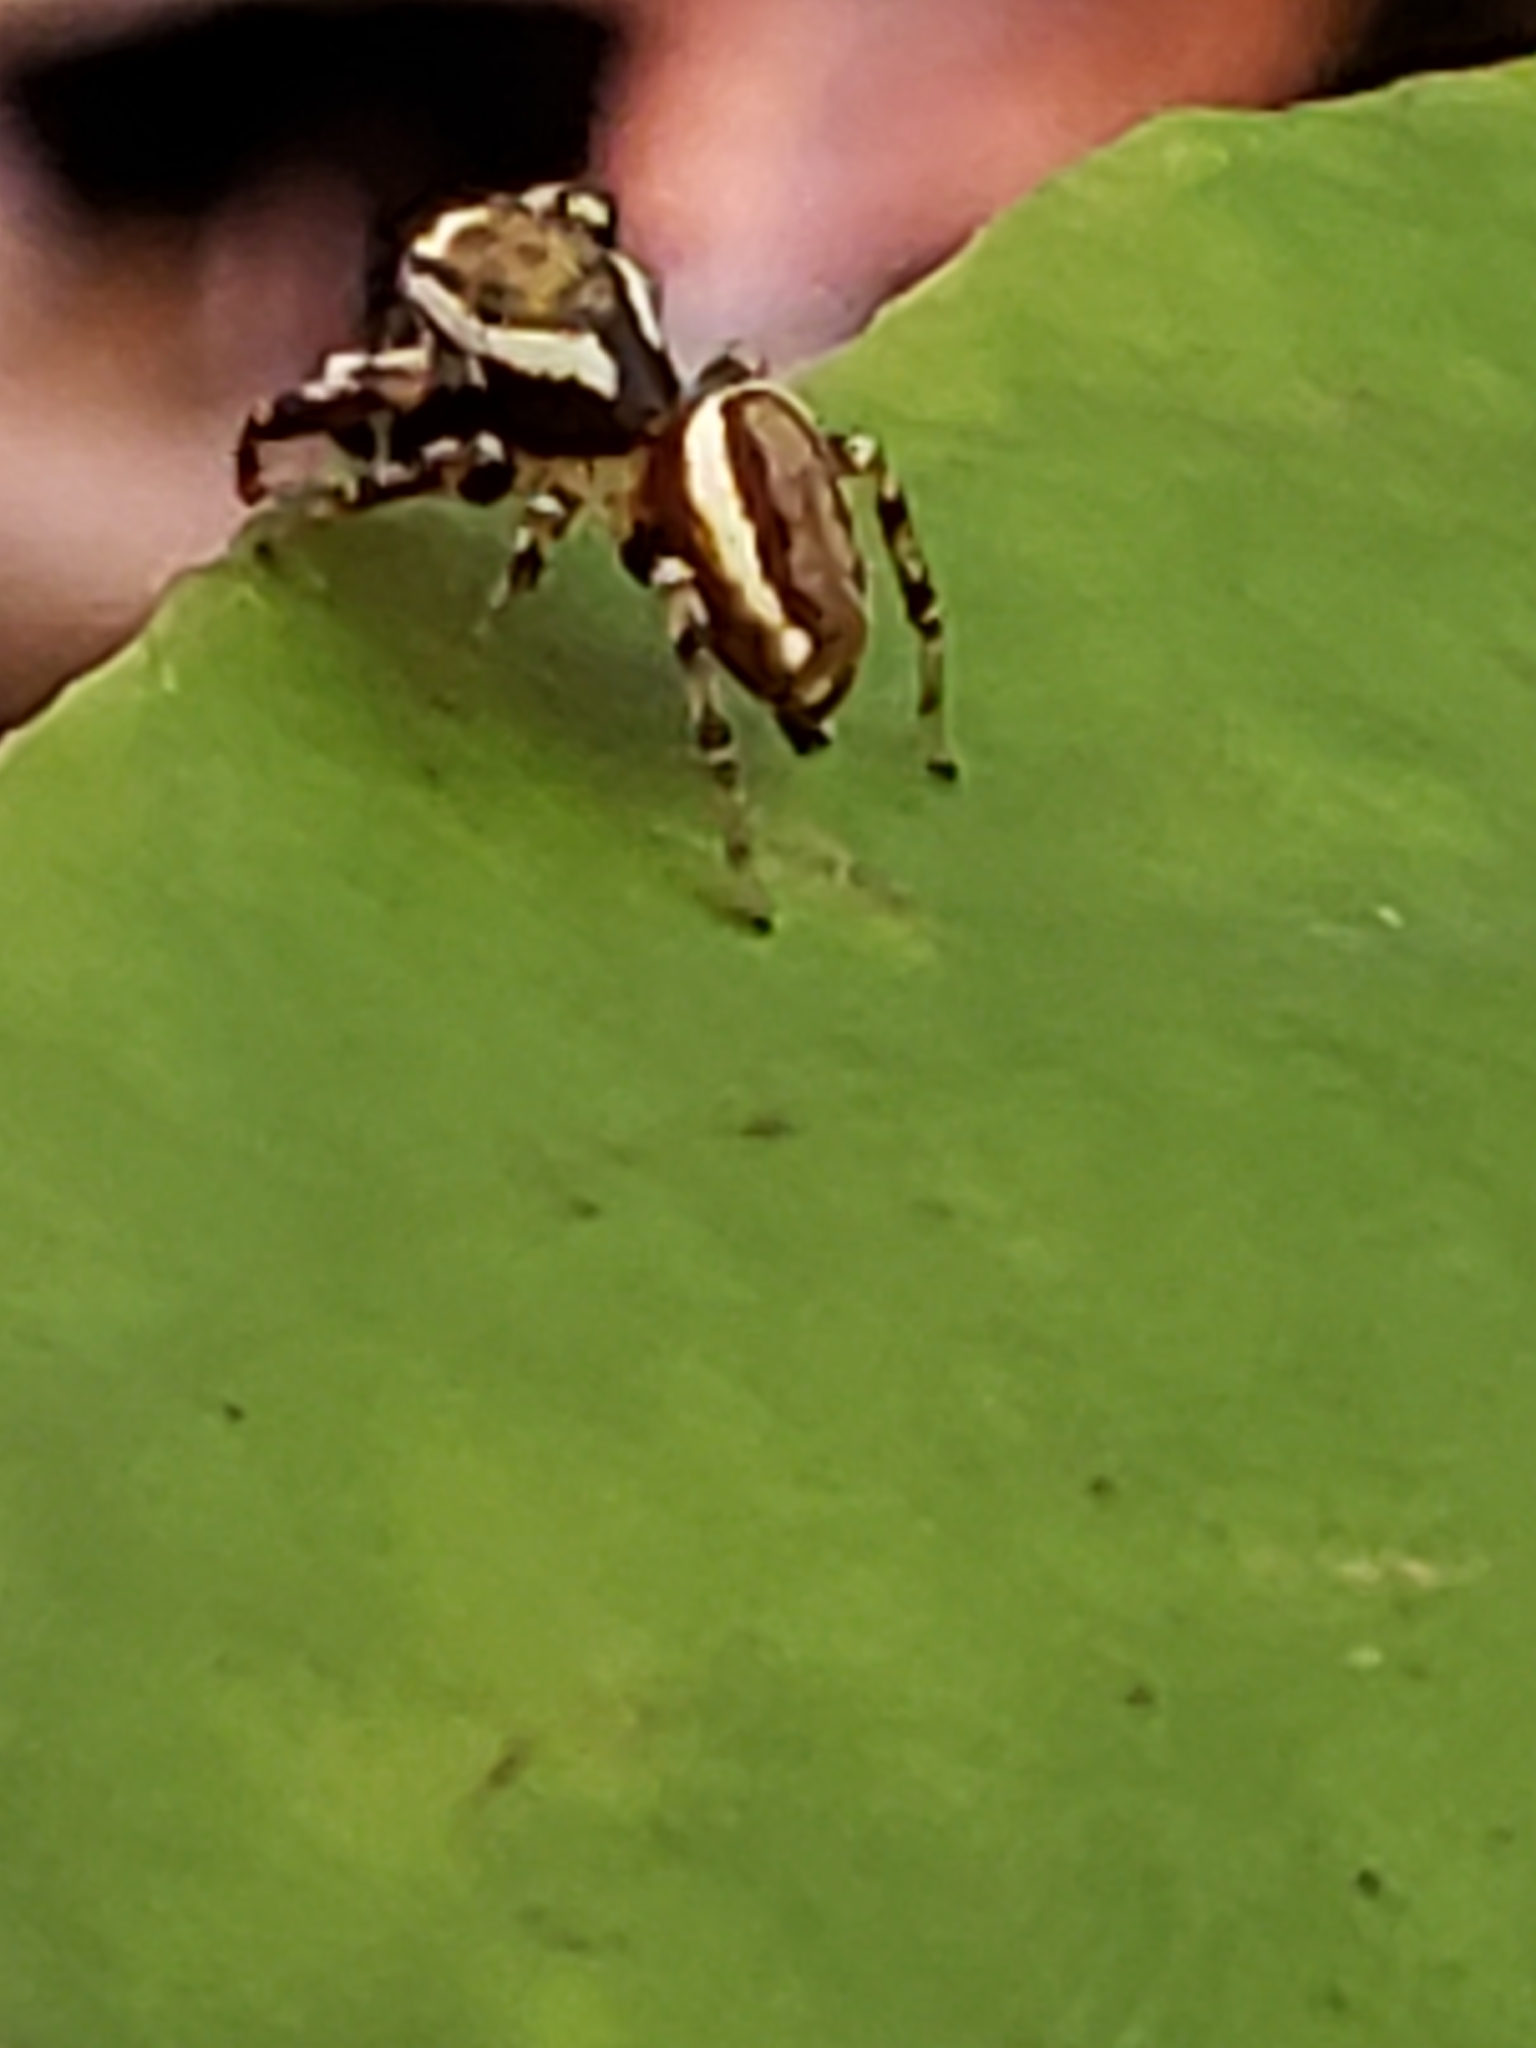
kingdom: Animalia
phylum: Arthropoda
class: Arachnida
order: Araneae
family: Salticidae
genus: Pelegrina
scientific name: Pelegrina proterva
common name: Common white-cheeked jumping spider
